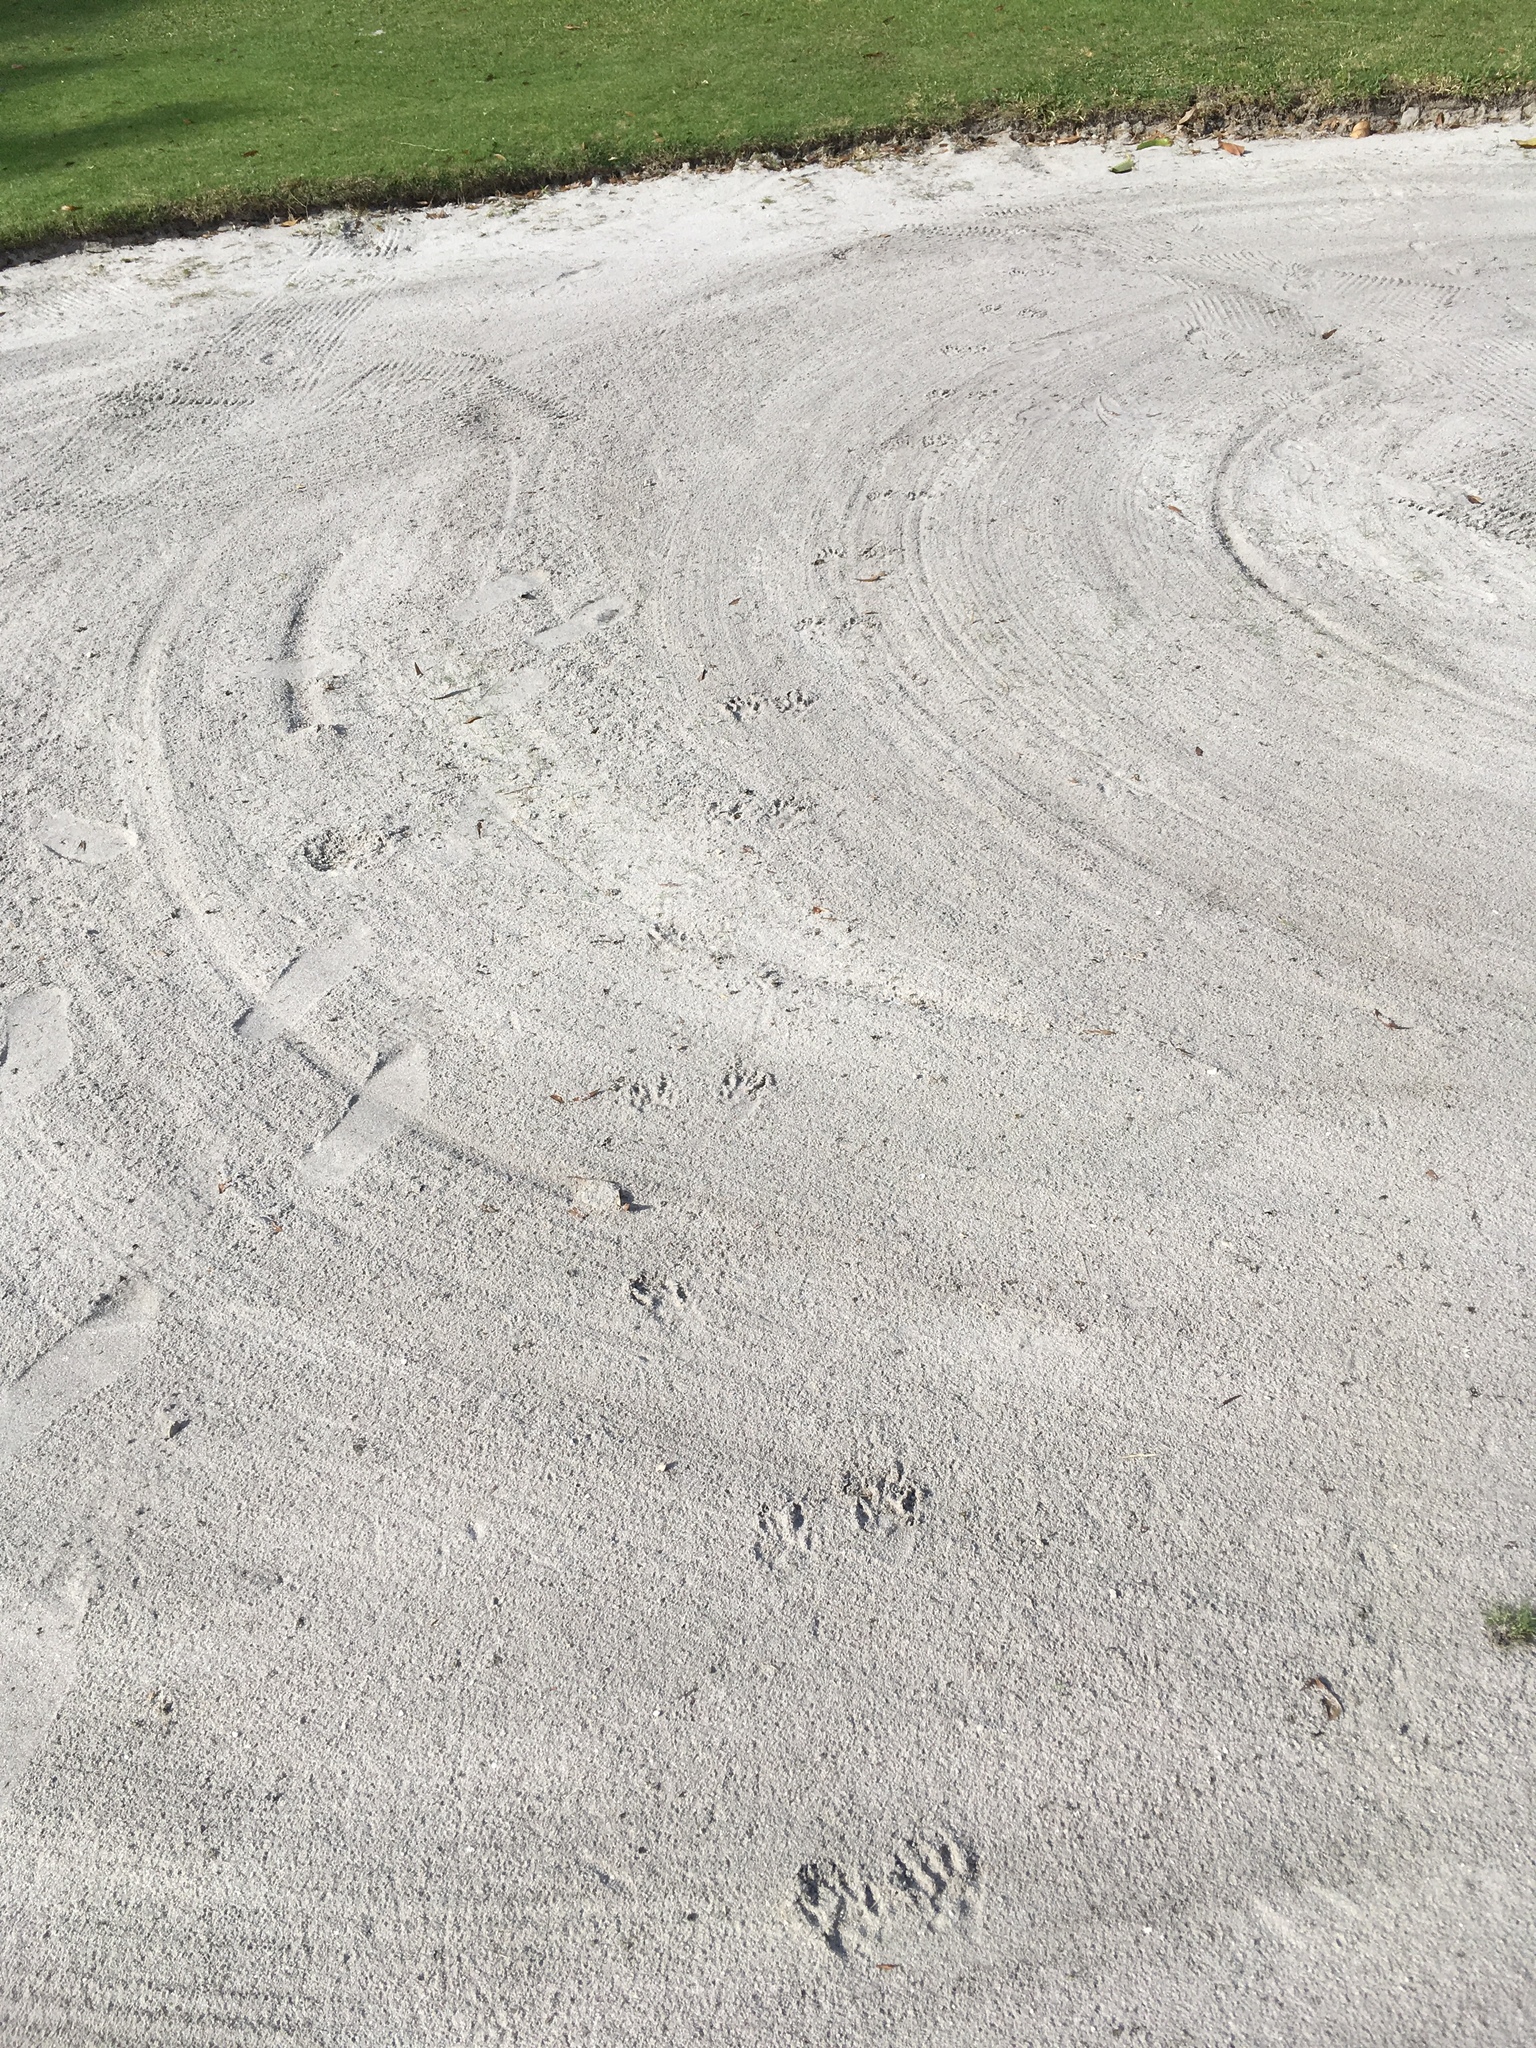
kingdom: Animalia
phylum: Chordata
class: Mammalia
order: Carnivora
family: Procyonidae
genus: Procyon
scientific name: Procyon lotor
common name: Raccoon
